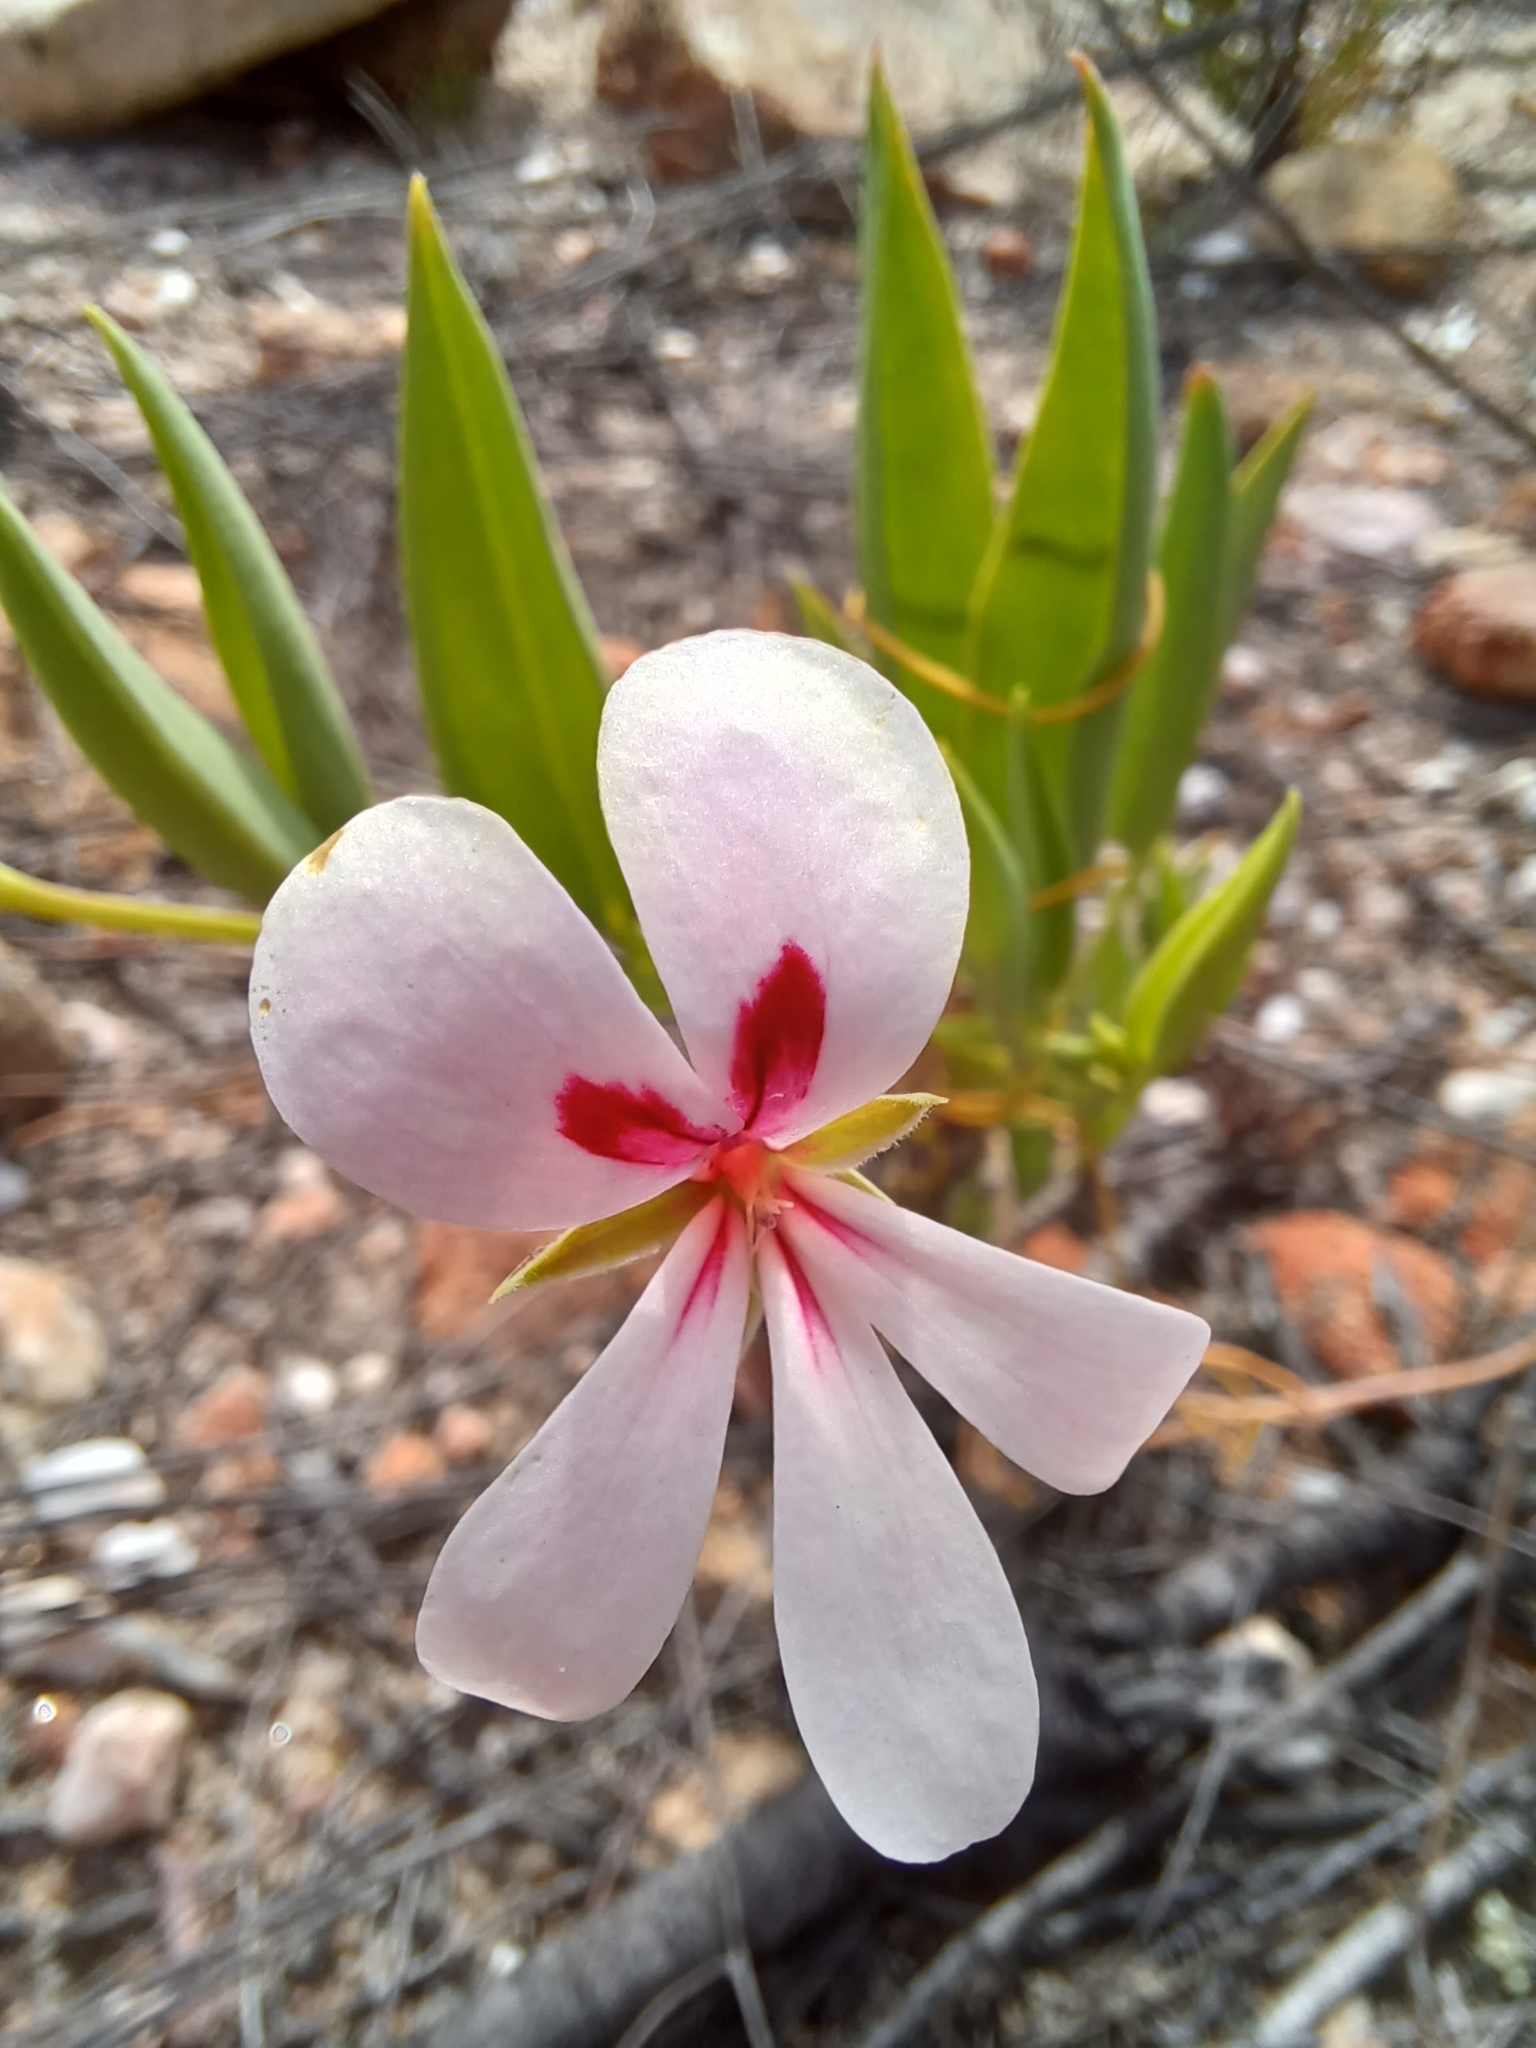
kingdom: Plantae
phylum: Tracheophyta
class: Magnoliopsida
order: Geraniales
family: Geraniaceae
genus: Pelargonium
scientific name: Pelargonium lanceolatum
